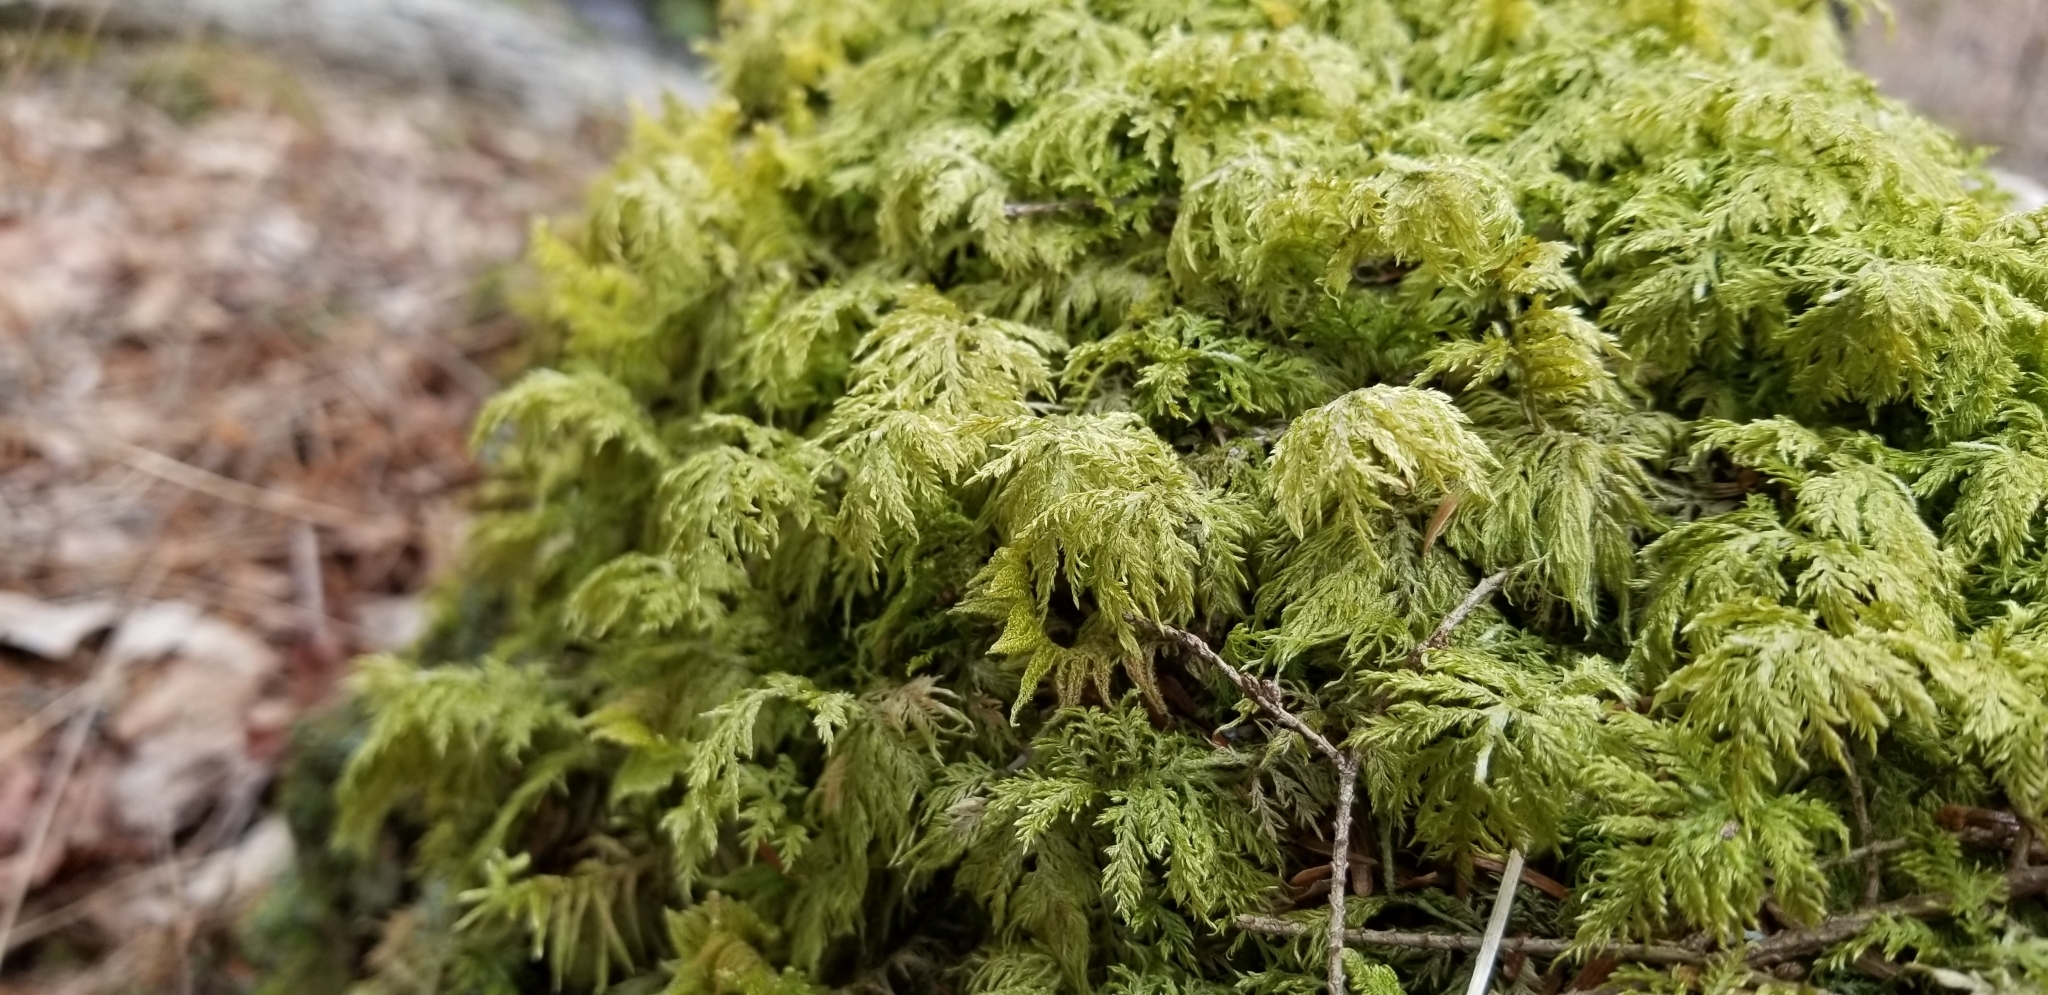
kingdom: Plantae
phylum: Bryophyta
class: Bryopsida
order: Hypnales
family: Hylocomiaceae
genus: Hylocomium
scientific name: Hylocomium splendens
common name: Stairstep moss
